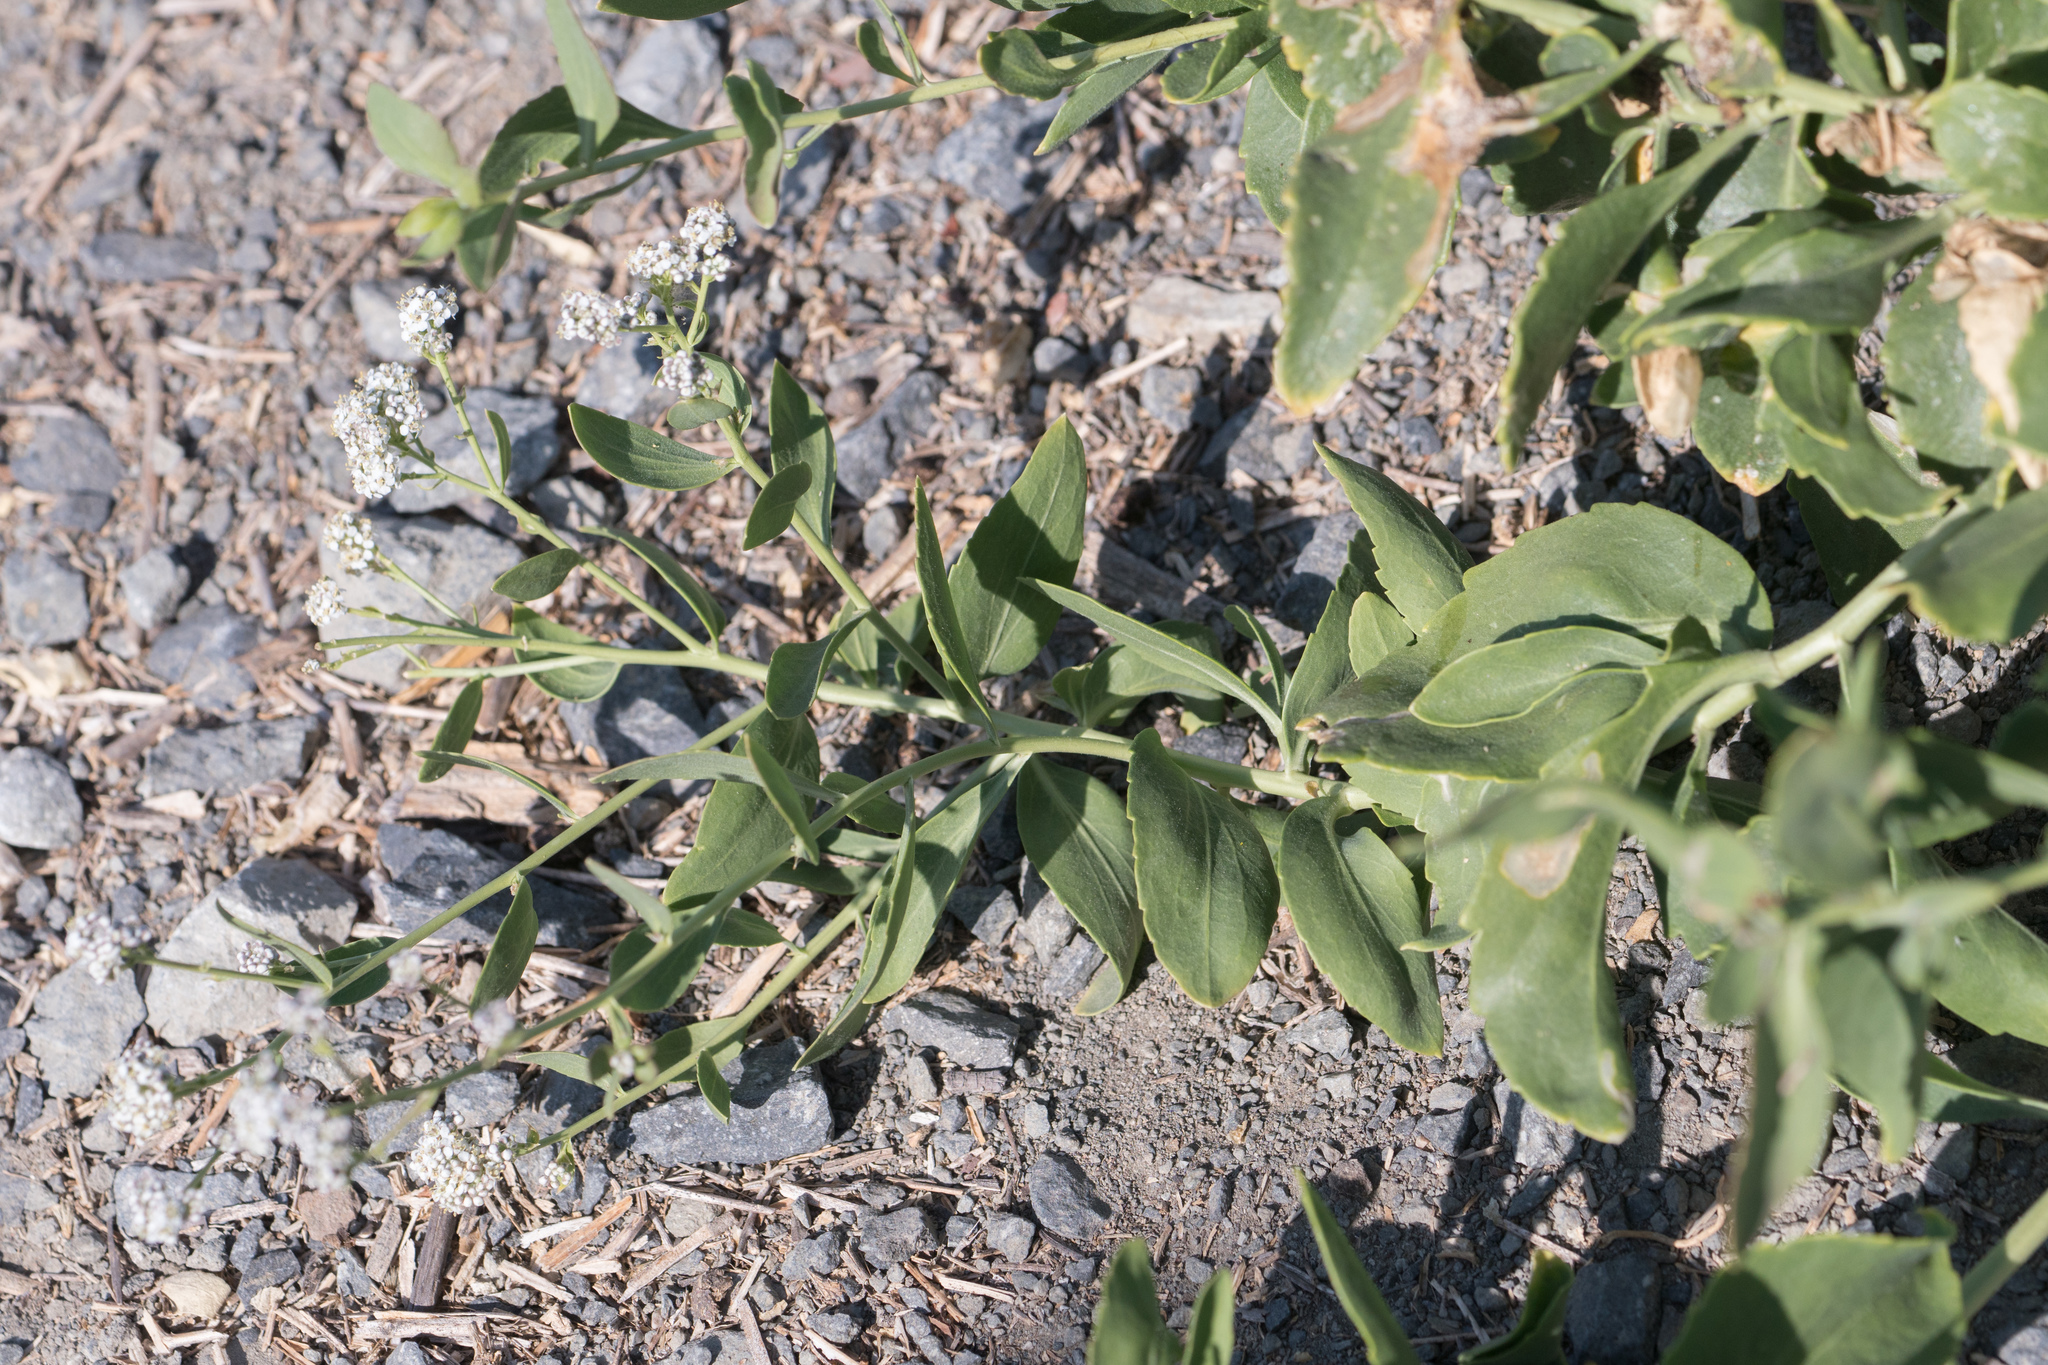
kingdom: Plantae
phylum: Tracheophyta
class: Magnoliopsida
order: Brassicales
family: Brassicaceae
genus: Lepidium
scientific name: Lepidium latifolium
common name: Dittander
